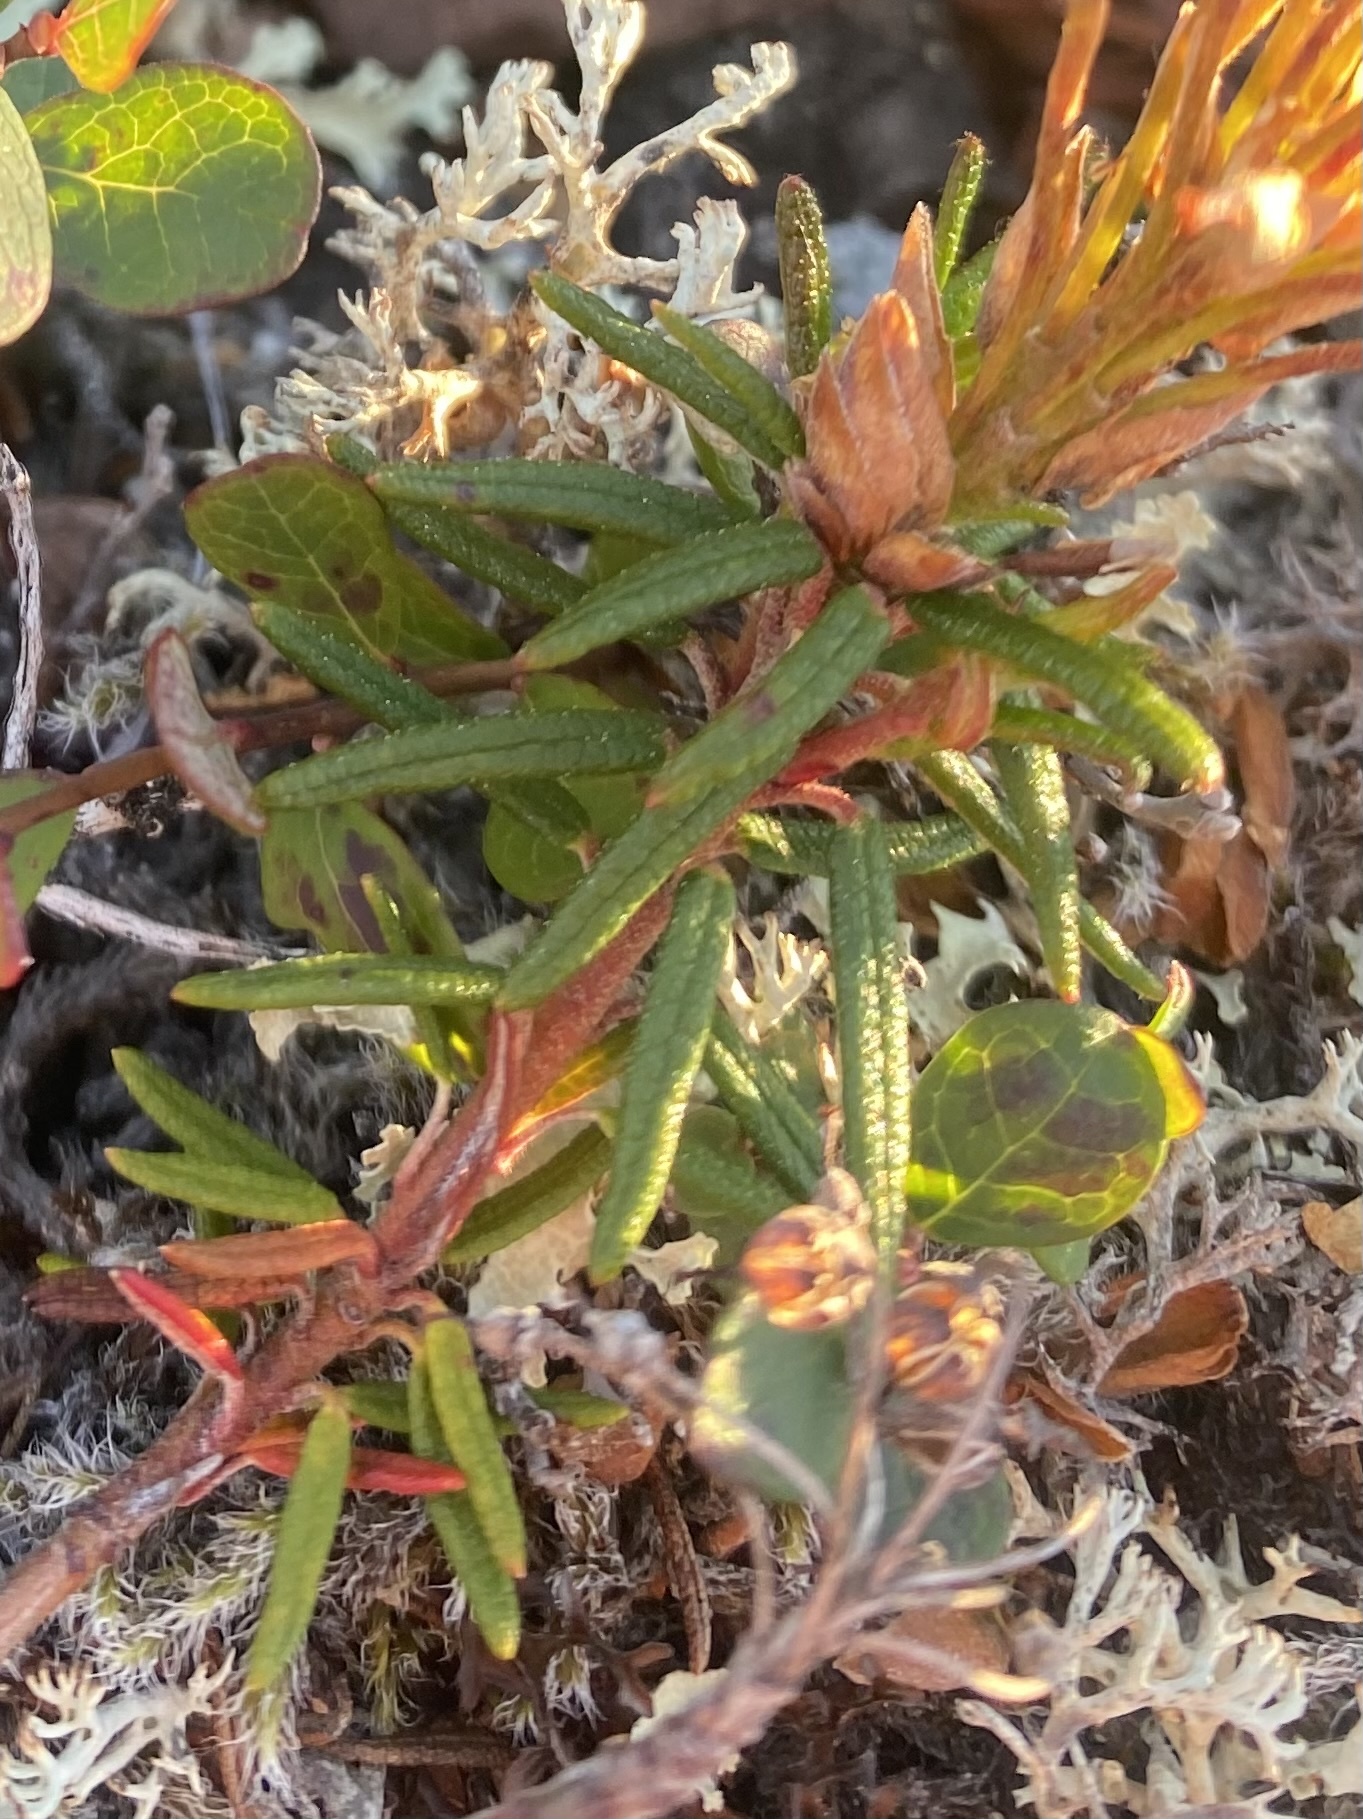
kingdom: Plantae
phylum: Tracheophyta
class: Magnoliopsida
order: Ericales
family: Ericaceae
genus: Rhododendron
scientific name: Rhododendron tomentosum
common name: Marsh labrador tea
